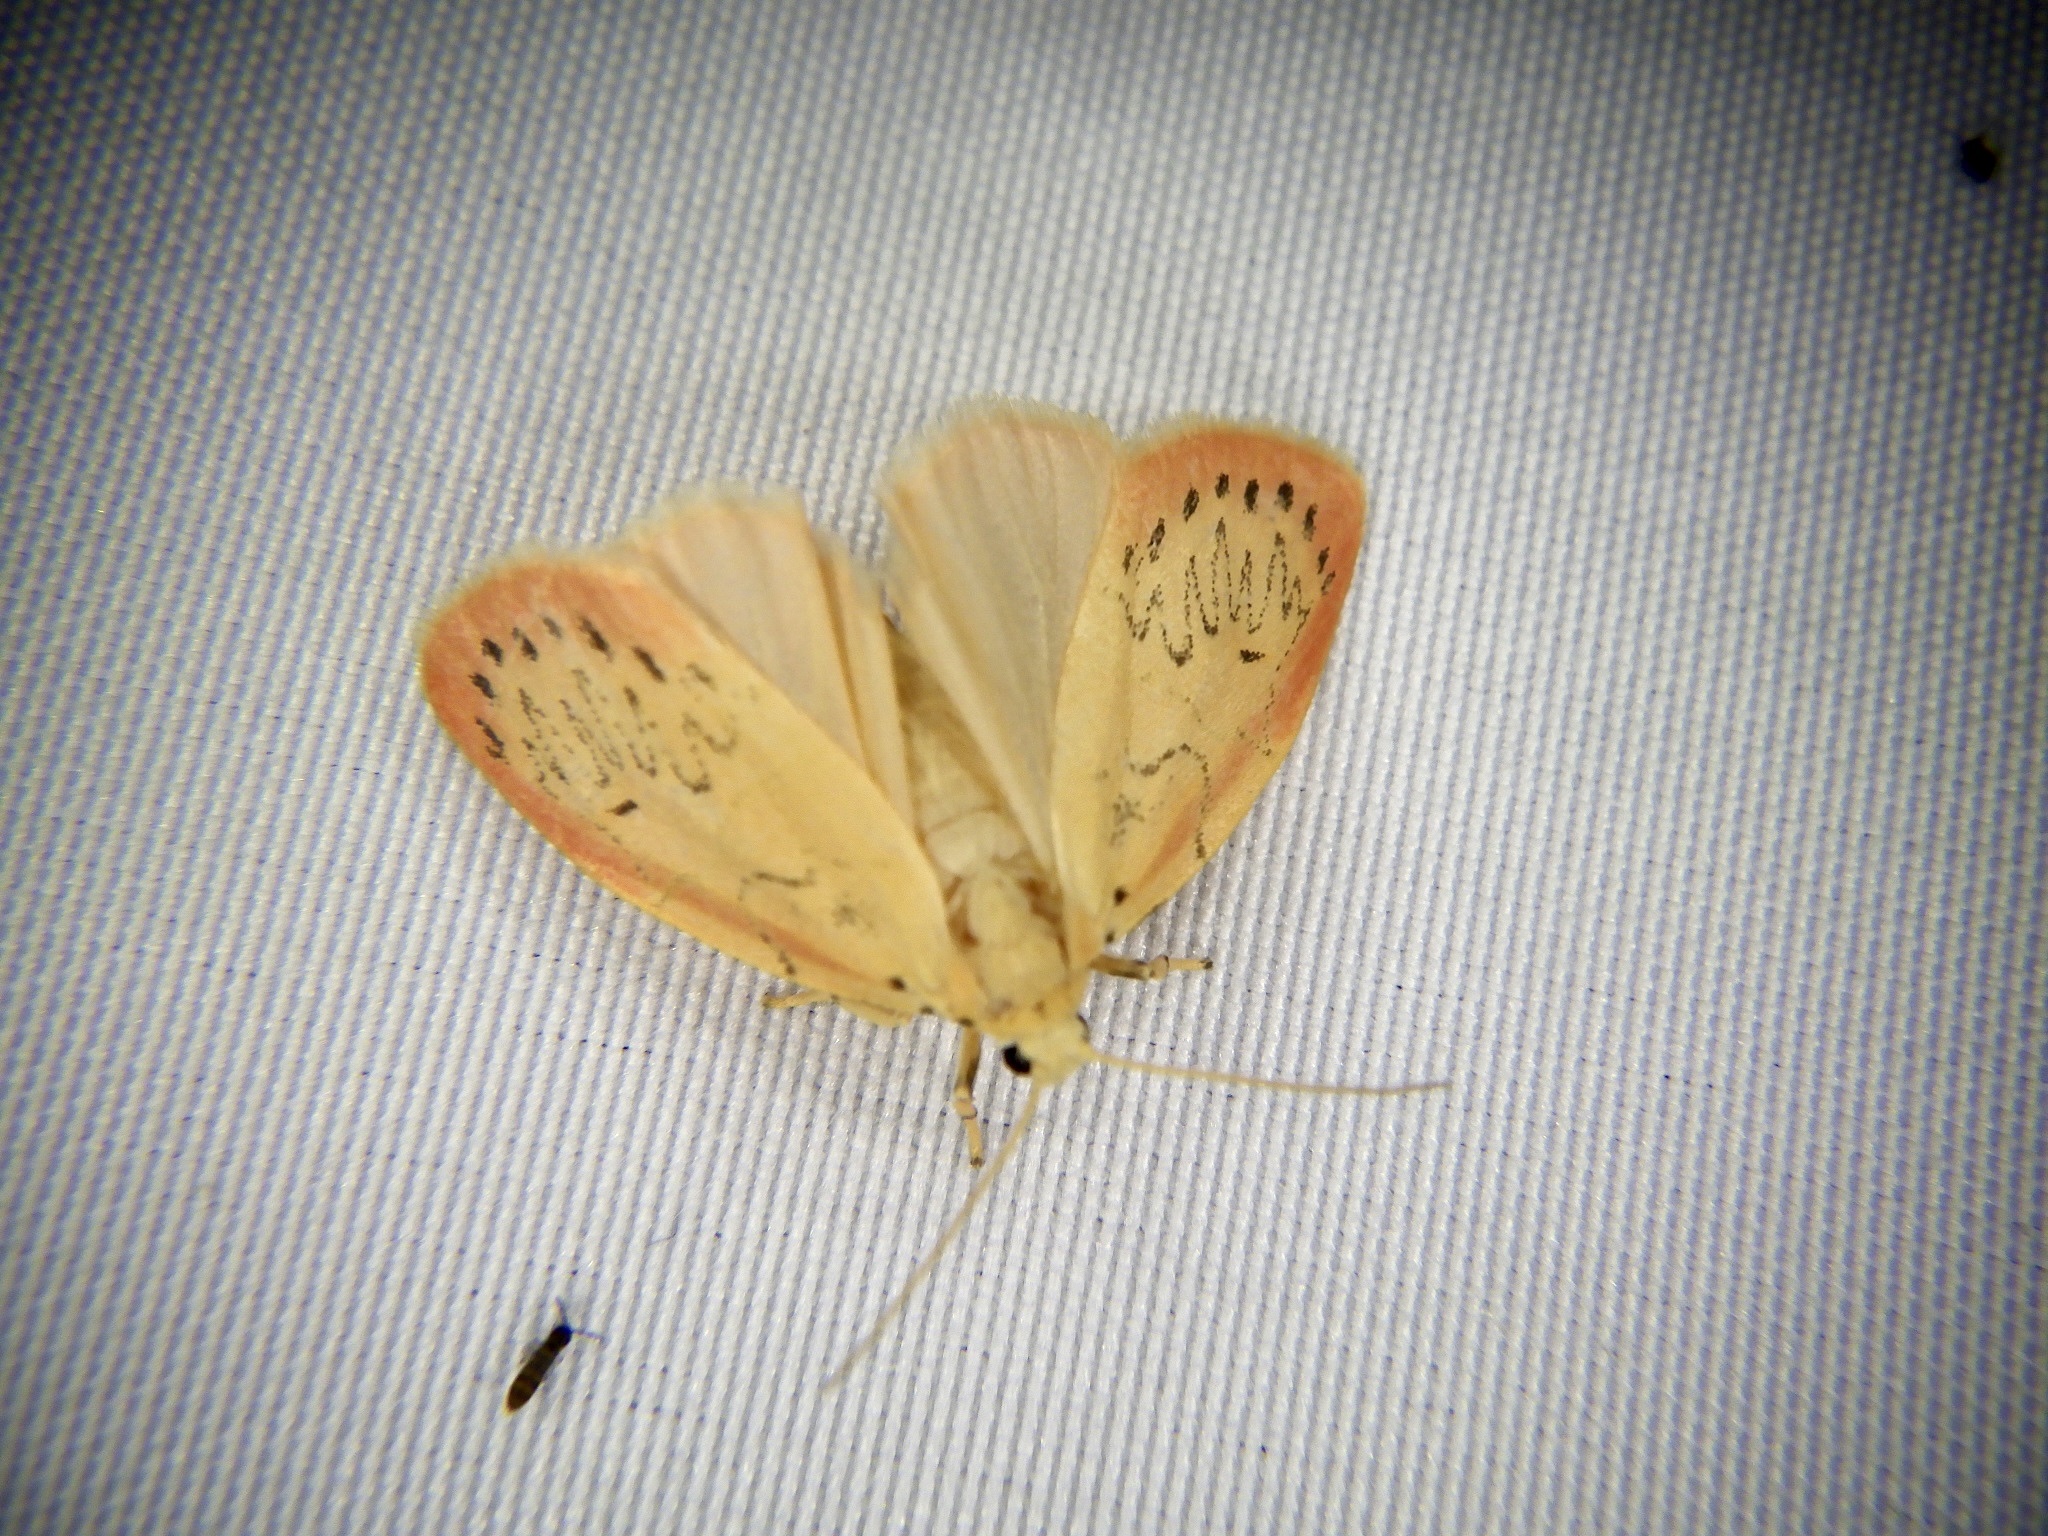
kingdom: Animalia
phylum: Arthropoda
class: Insecta
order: Lepidoptera
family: Erebidae
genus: Miltochrista
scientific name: Miltochrista miniata
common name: Rosy footman
